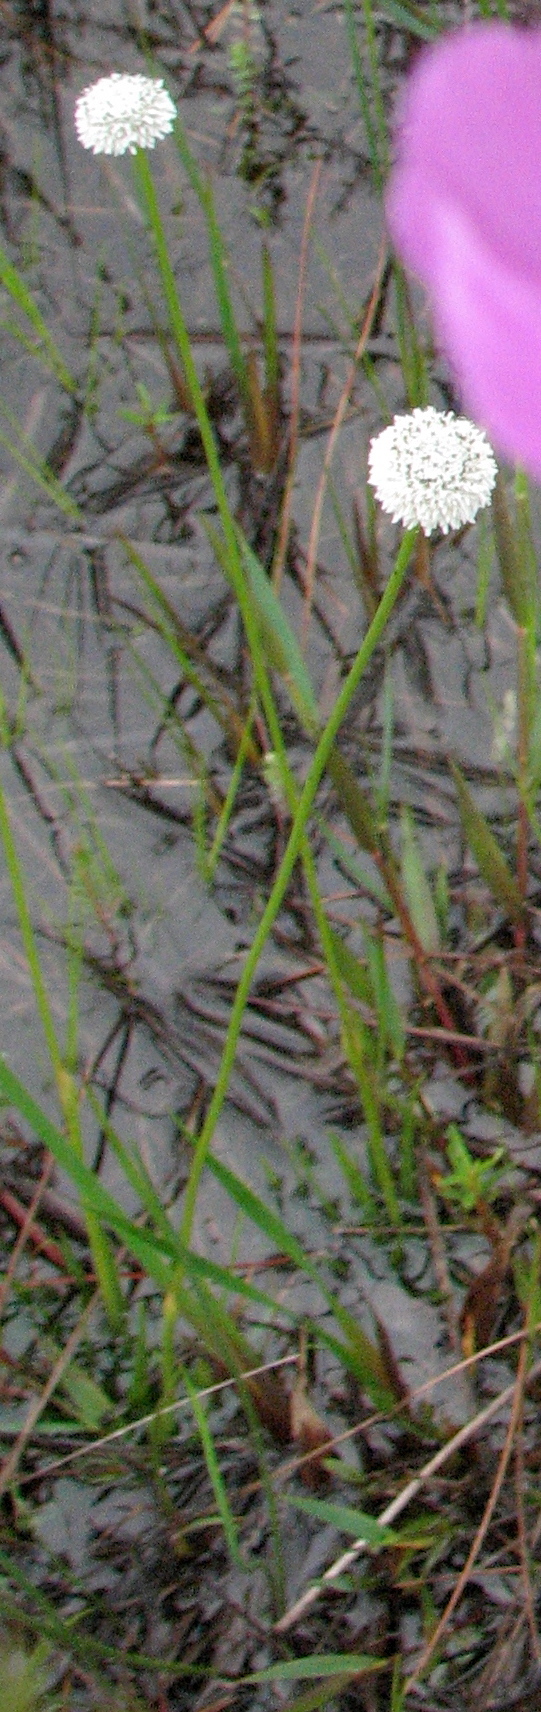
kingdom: Plantae
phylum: Tracheophyta
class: Liliopsida
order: Poales
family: Eriocaulaceae
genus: Eriocaulon
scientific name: Eriocaulon compressum
